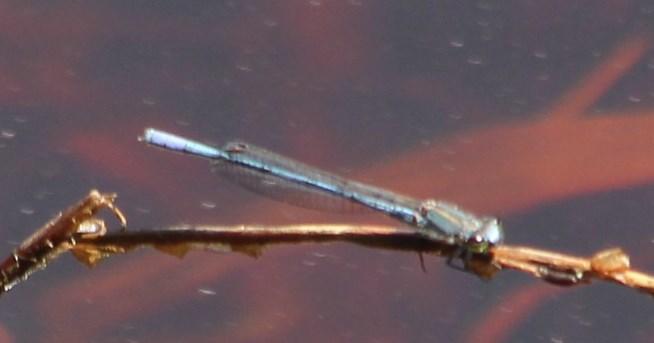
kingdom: Animalia
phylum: Arthropoda
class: Insecta
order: Odonata
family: Coenagrionidae
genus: Pseudagrion
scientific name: Pseudagrion draconis
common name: Mountain sprite
